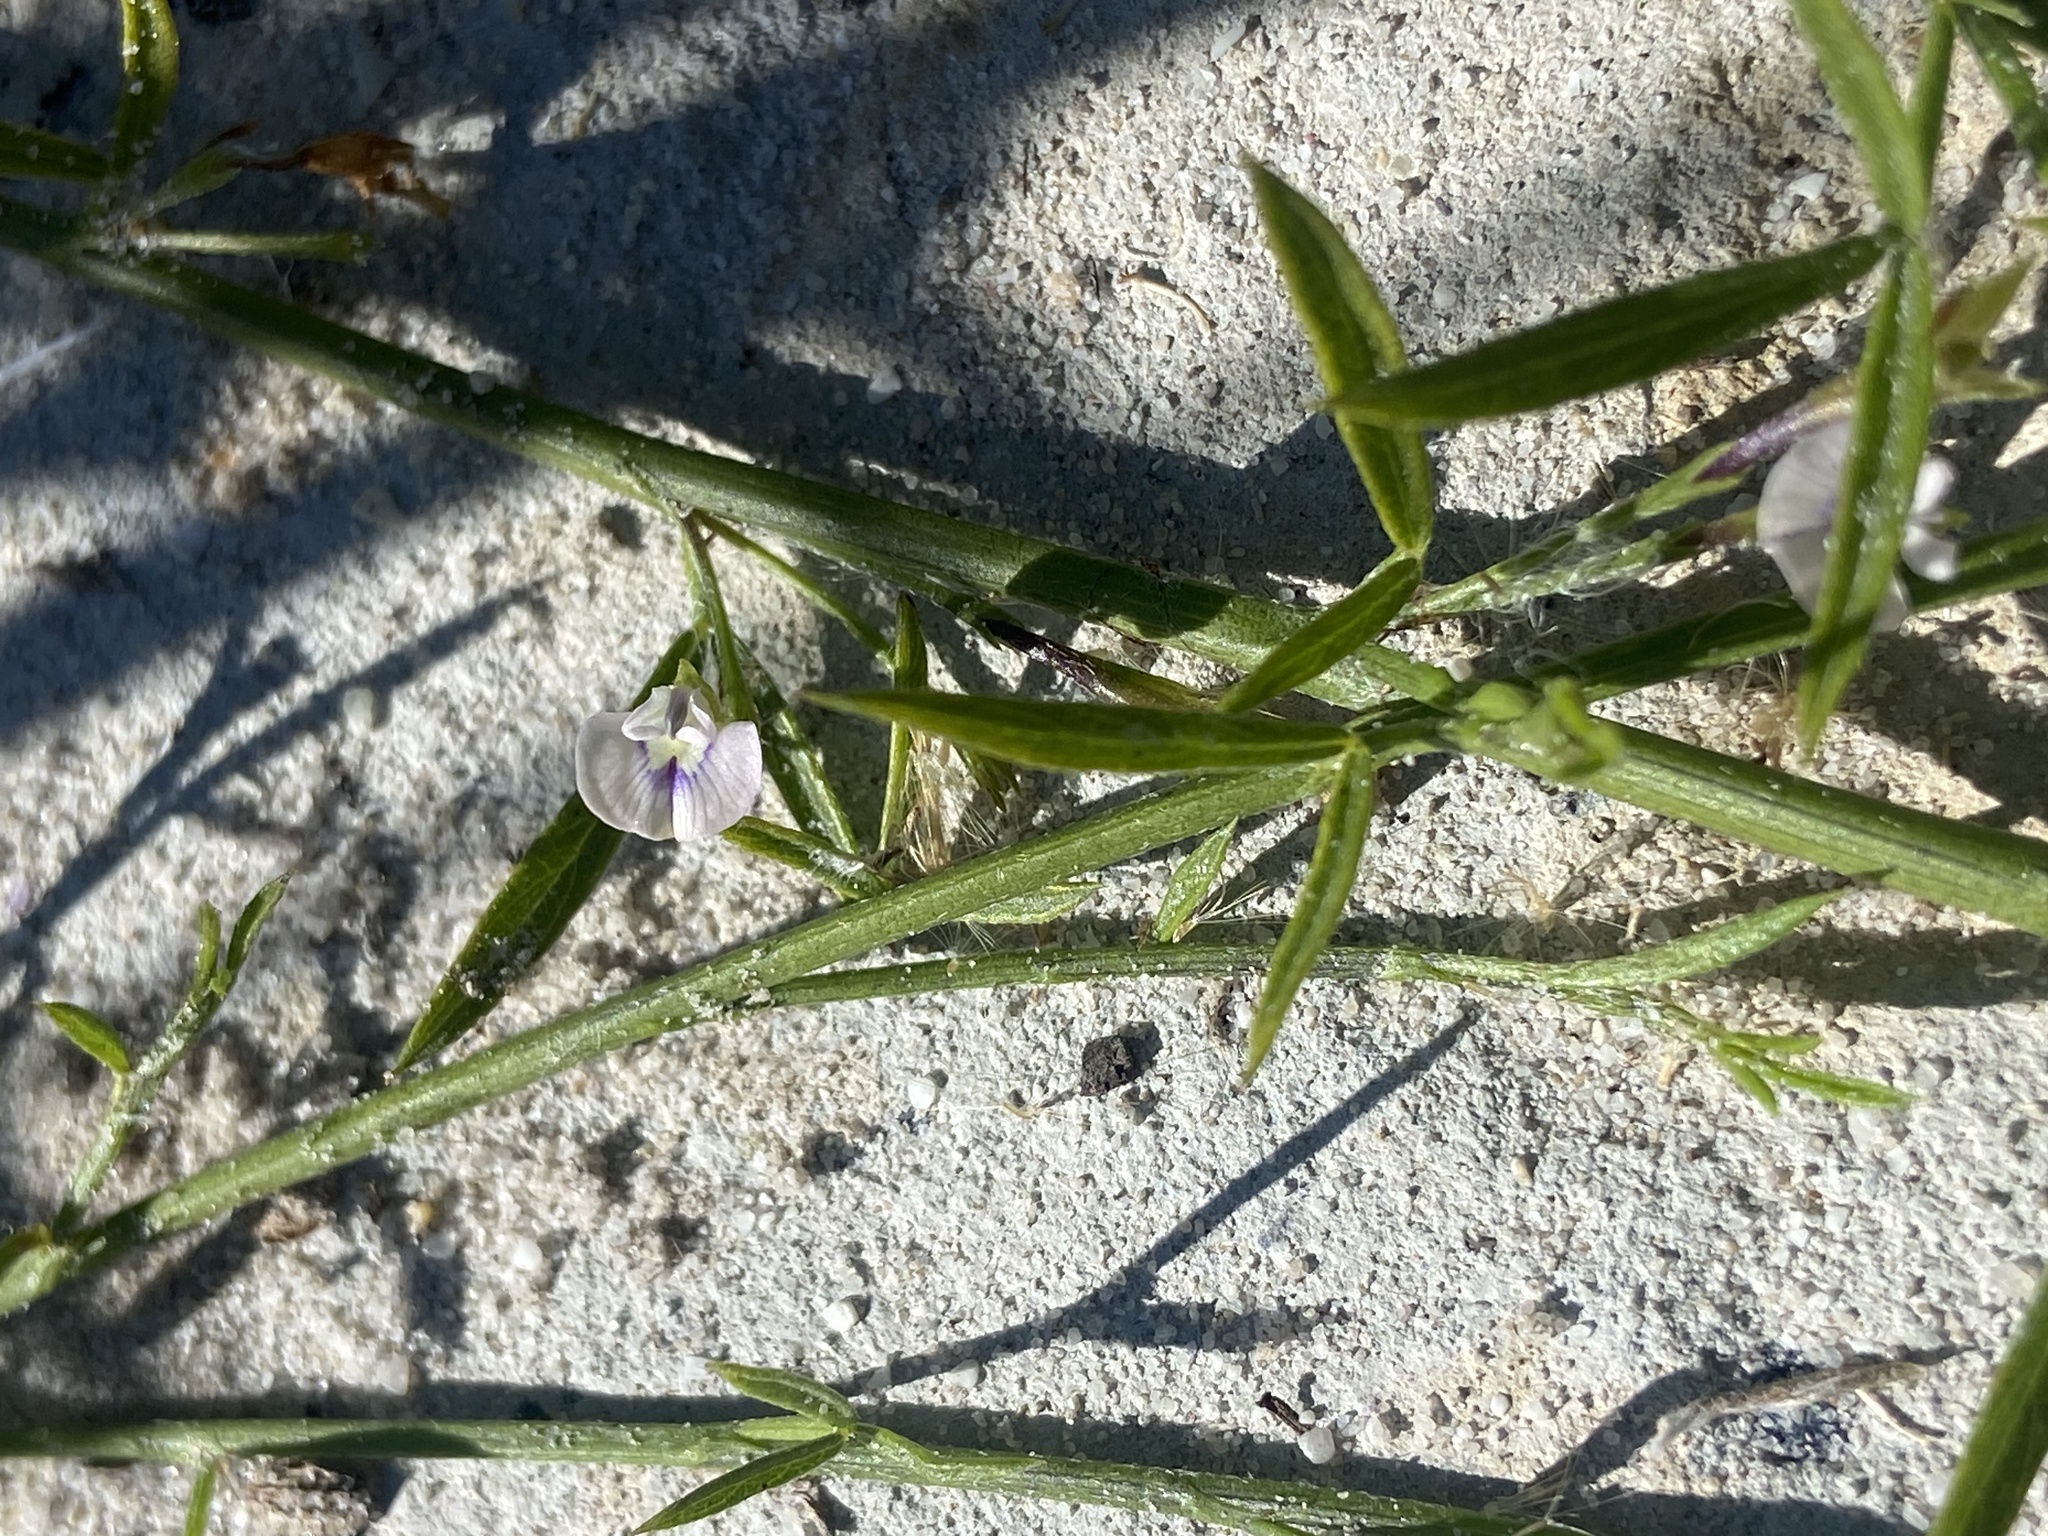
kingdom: Plantae
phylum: Tracheophyta
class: Magnoliopsida
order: Fabales
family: Fabaceae
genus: Psoralea
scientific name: Psoralea glaucina
